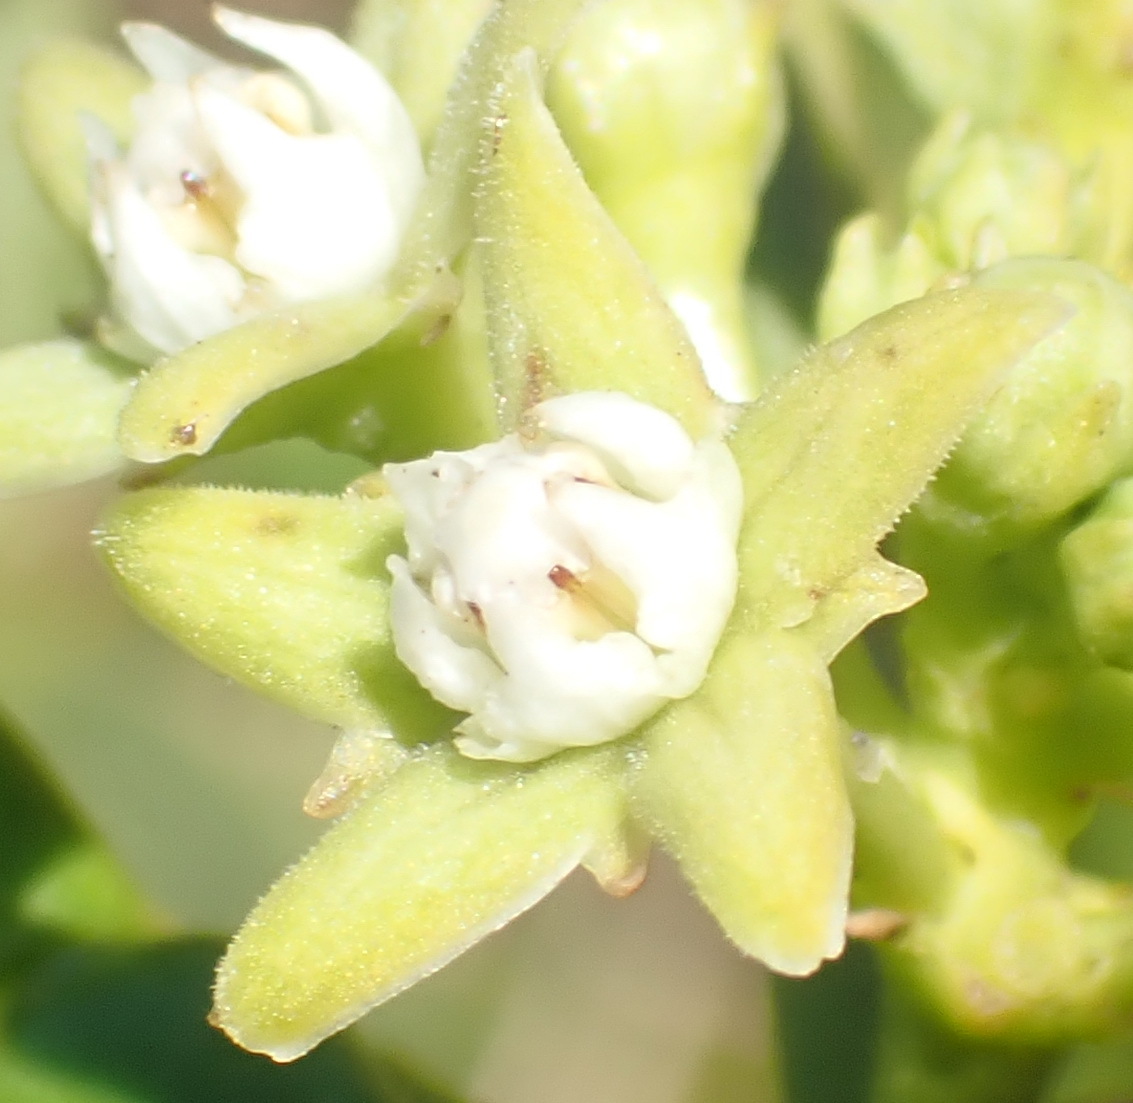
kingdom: Plantae
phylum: Tracheophyta
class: Magnoliopsida
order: Gentianales
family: Apocynaceae
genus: Cynanchum
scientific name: Cynanchum obtusifolium
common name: Monkey-rope
